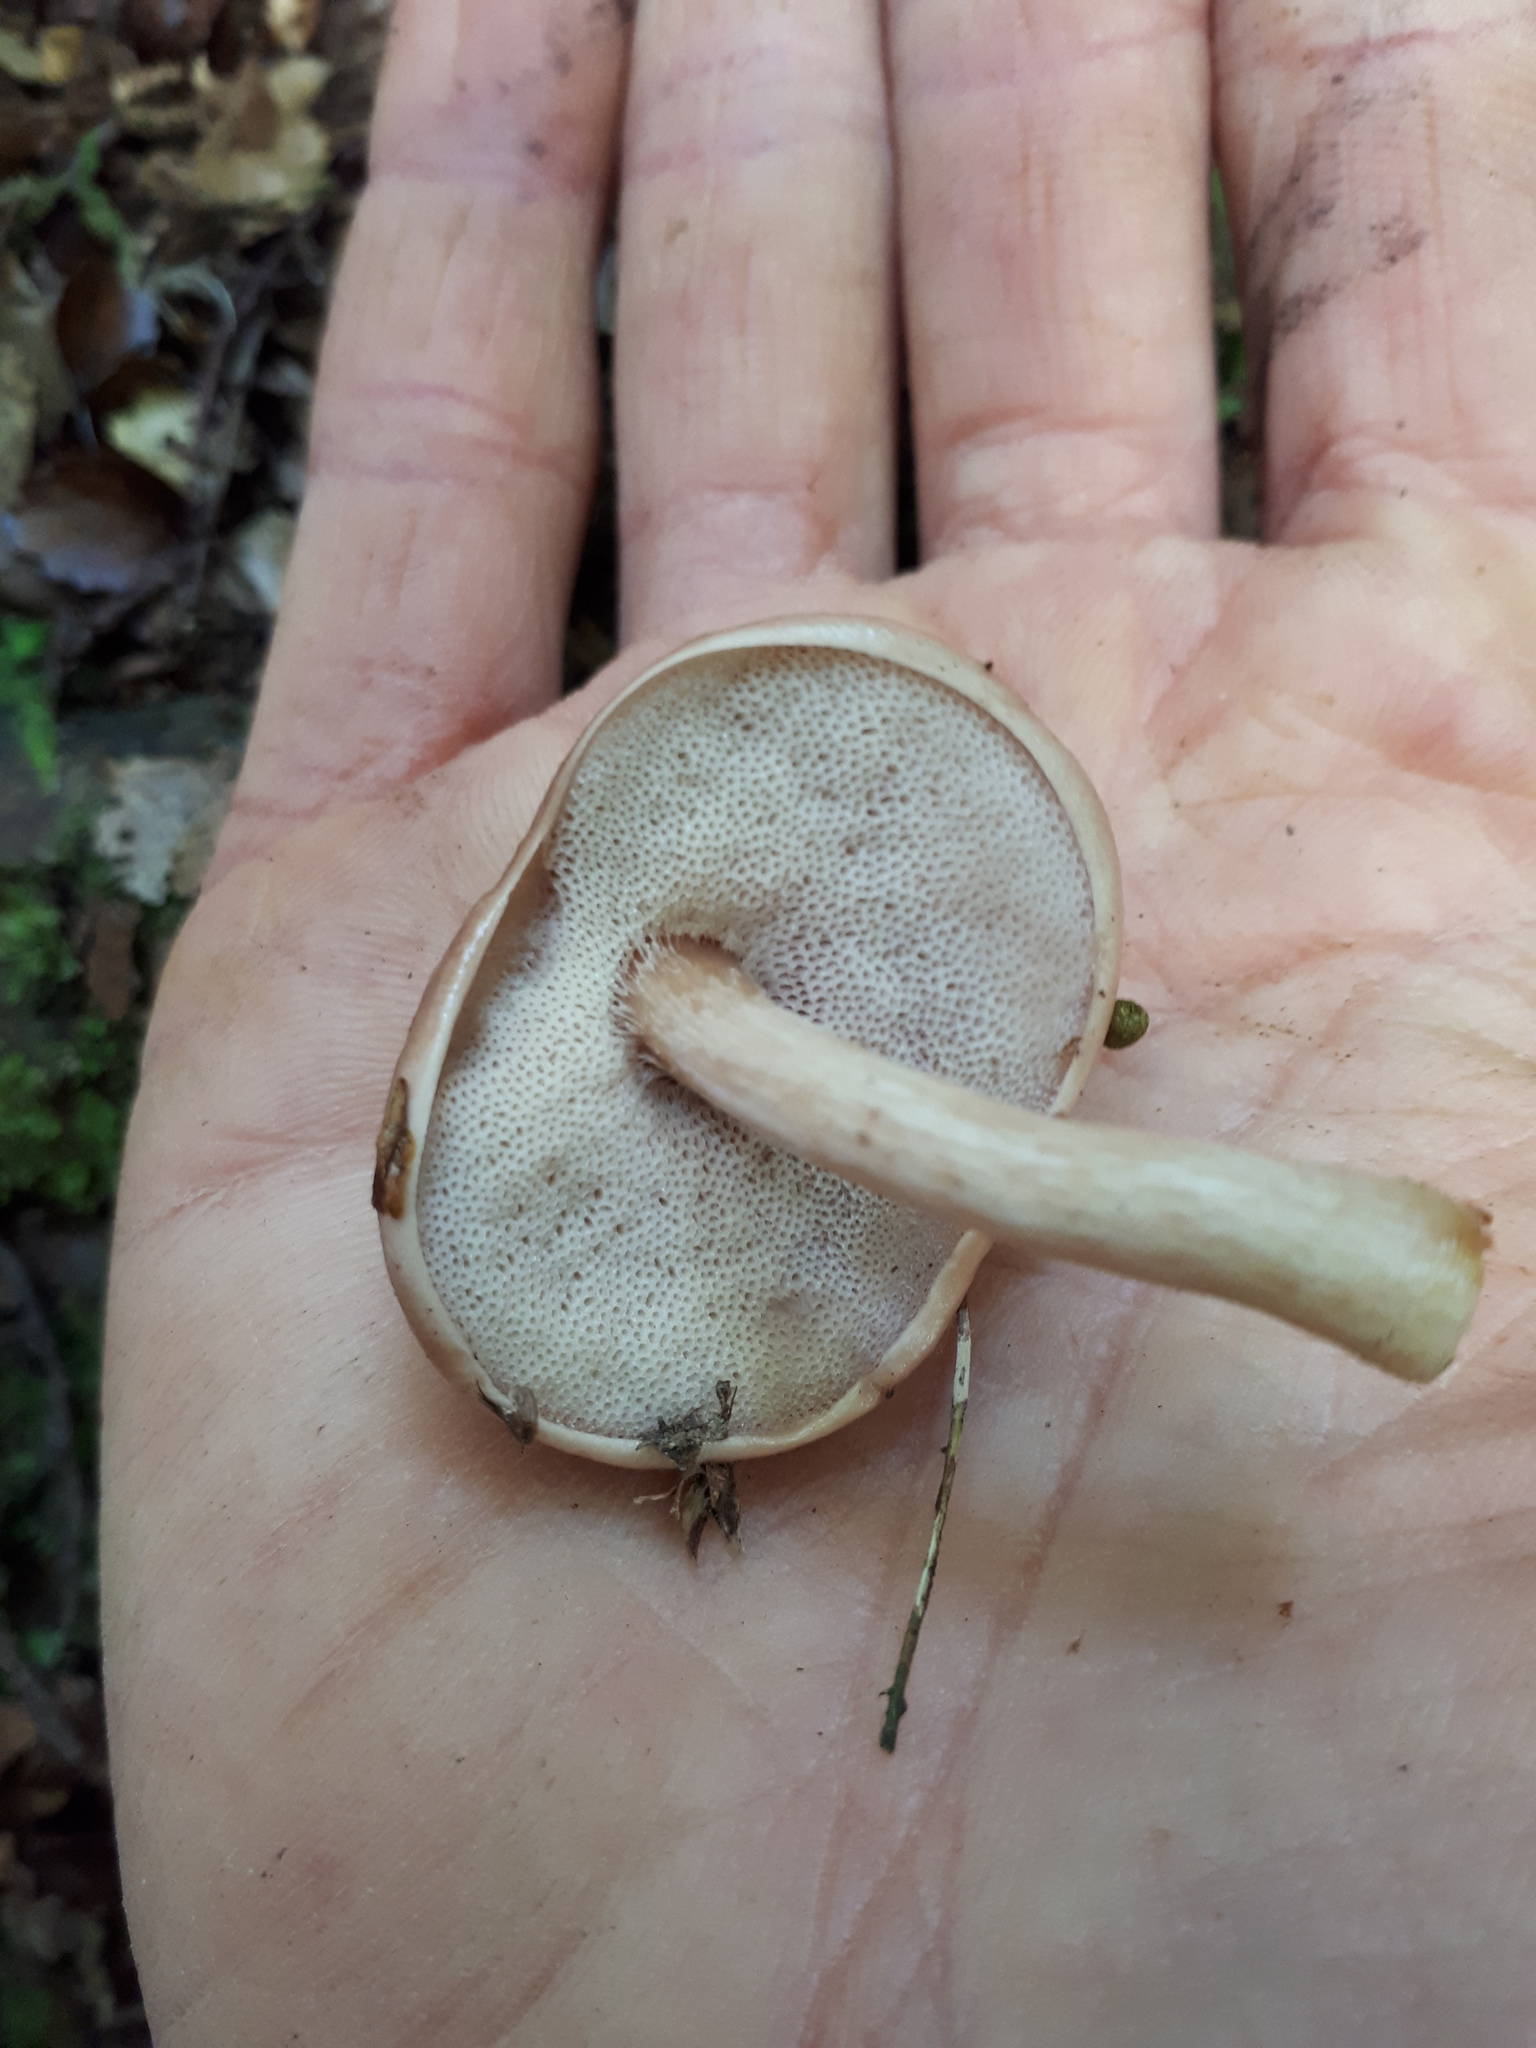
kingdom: Fungi
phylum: Basidiomycota
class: Agaricomycetes
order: Boletales
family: Boletaceae
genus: Fistulinella
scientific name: Fistulinella violaceipora
